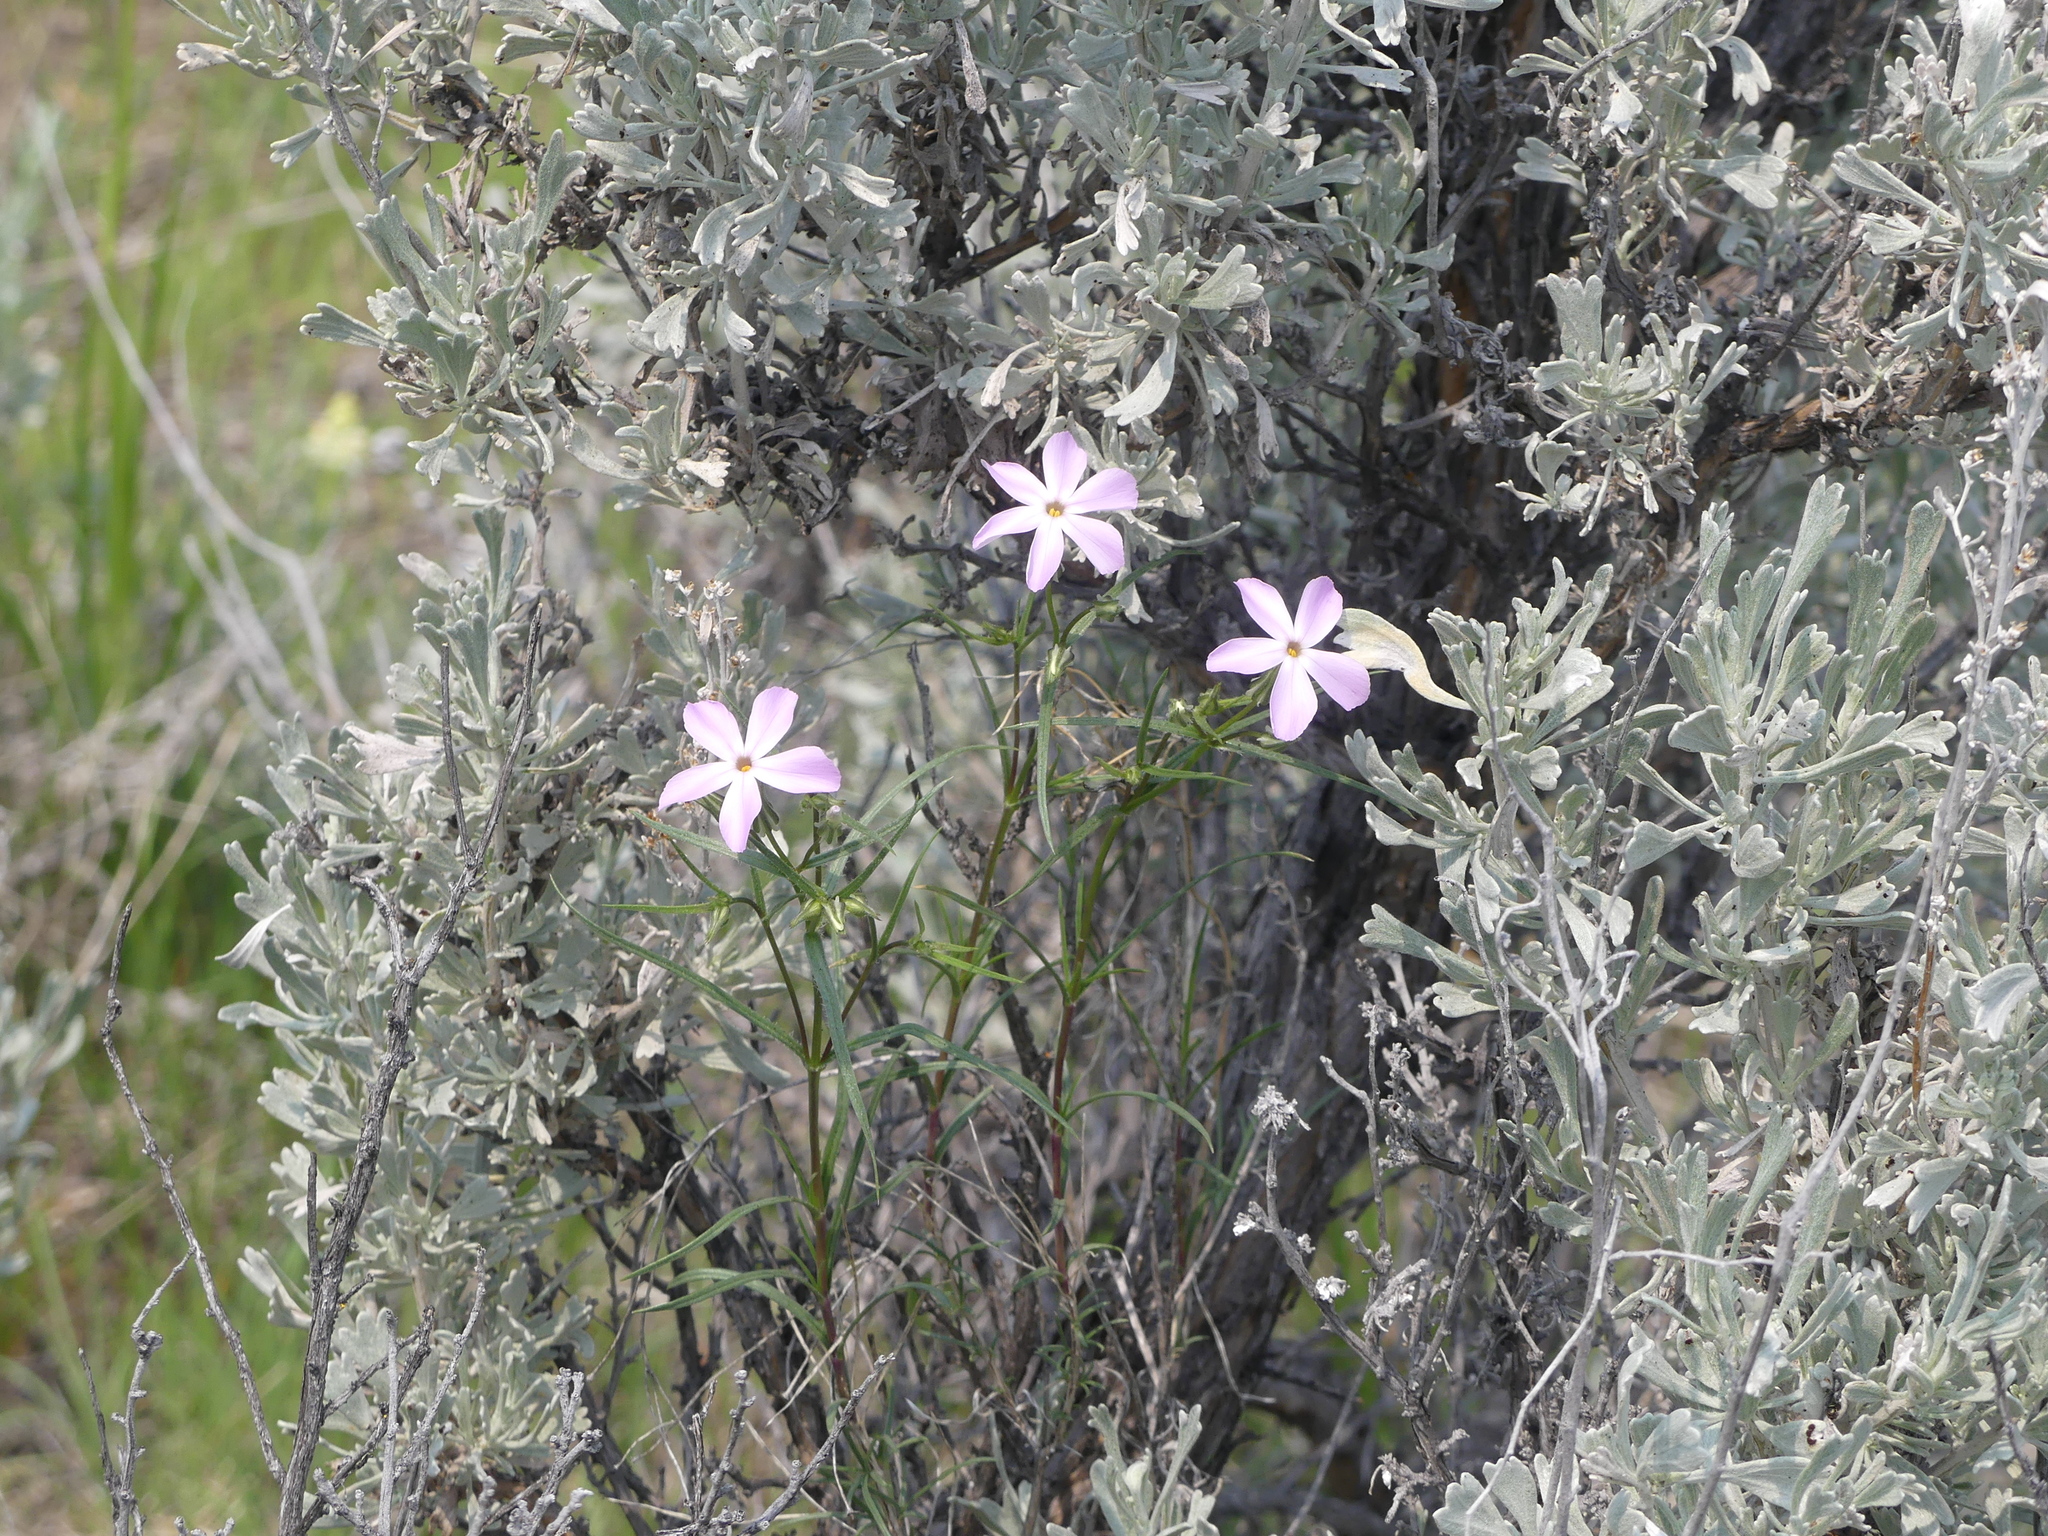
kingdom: Plantae
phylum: Tracheophyta
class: Magnoliopsida
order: Ericales
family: Polemoniaceae
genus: Phlox
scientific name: Phlox longifolia
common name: Longleaf phlox
